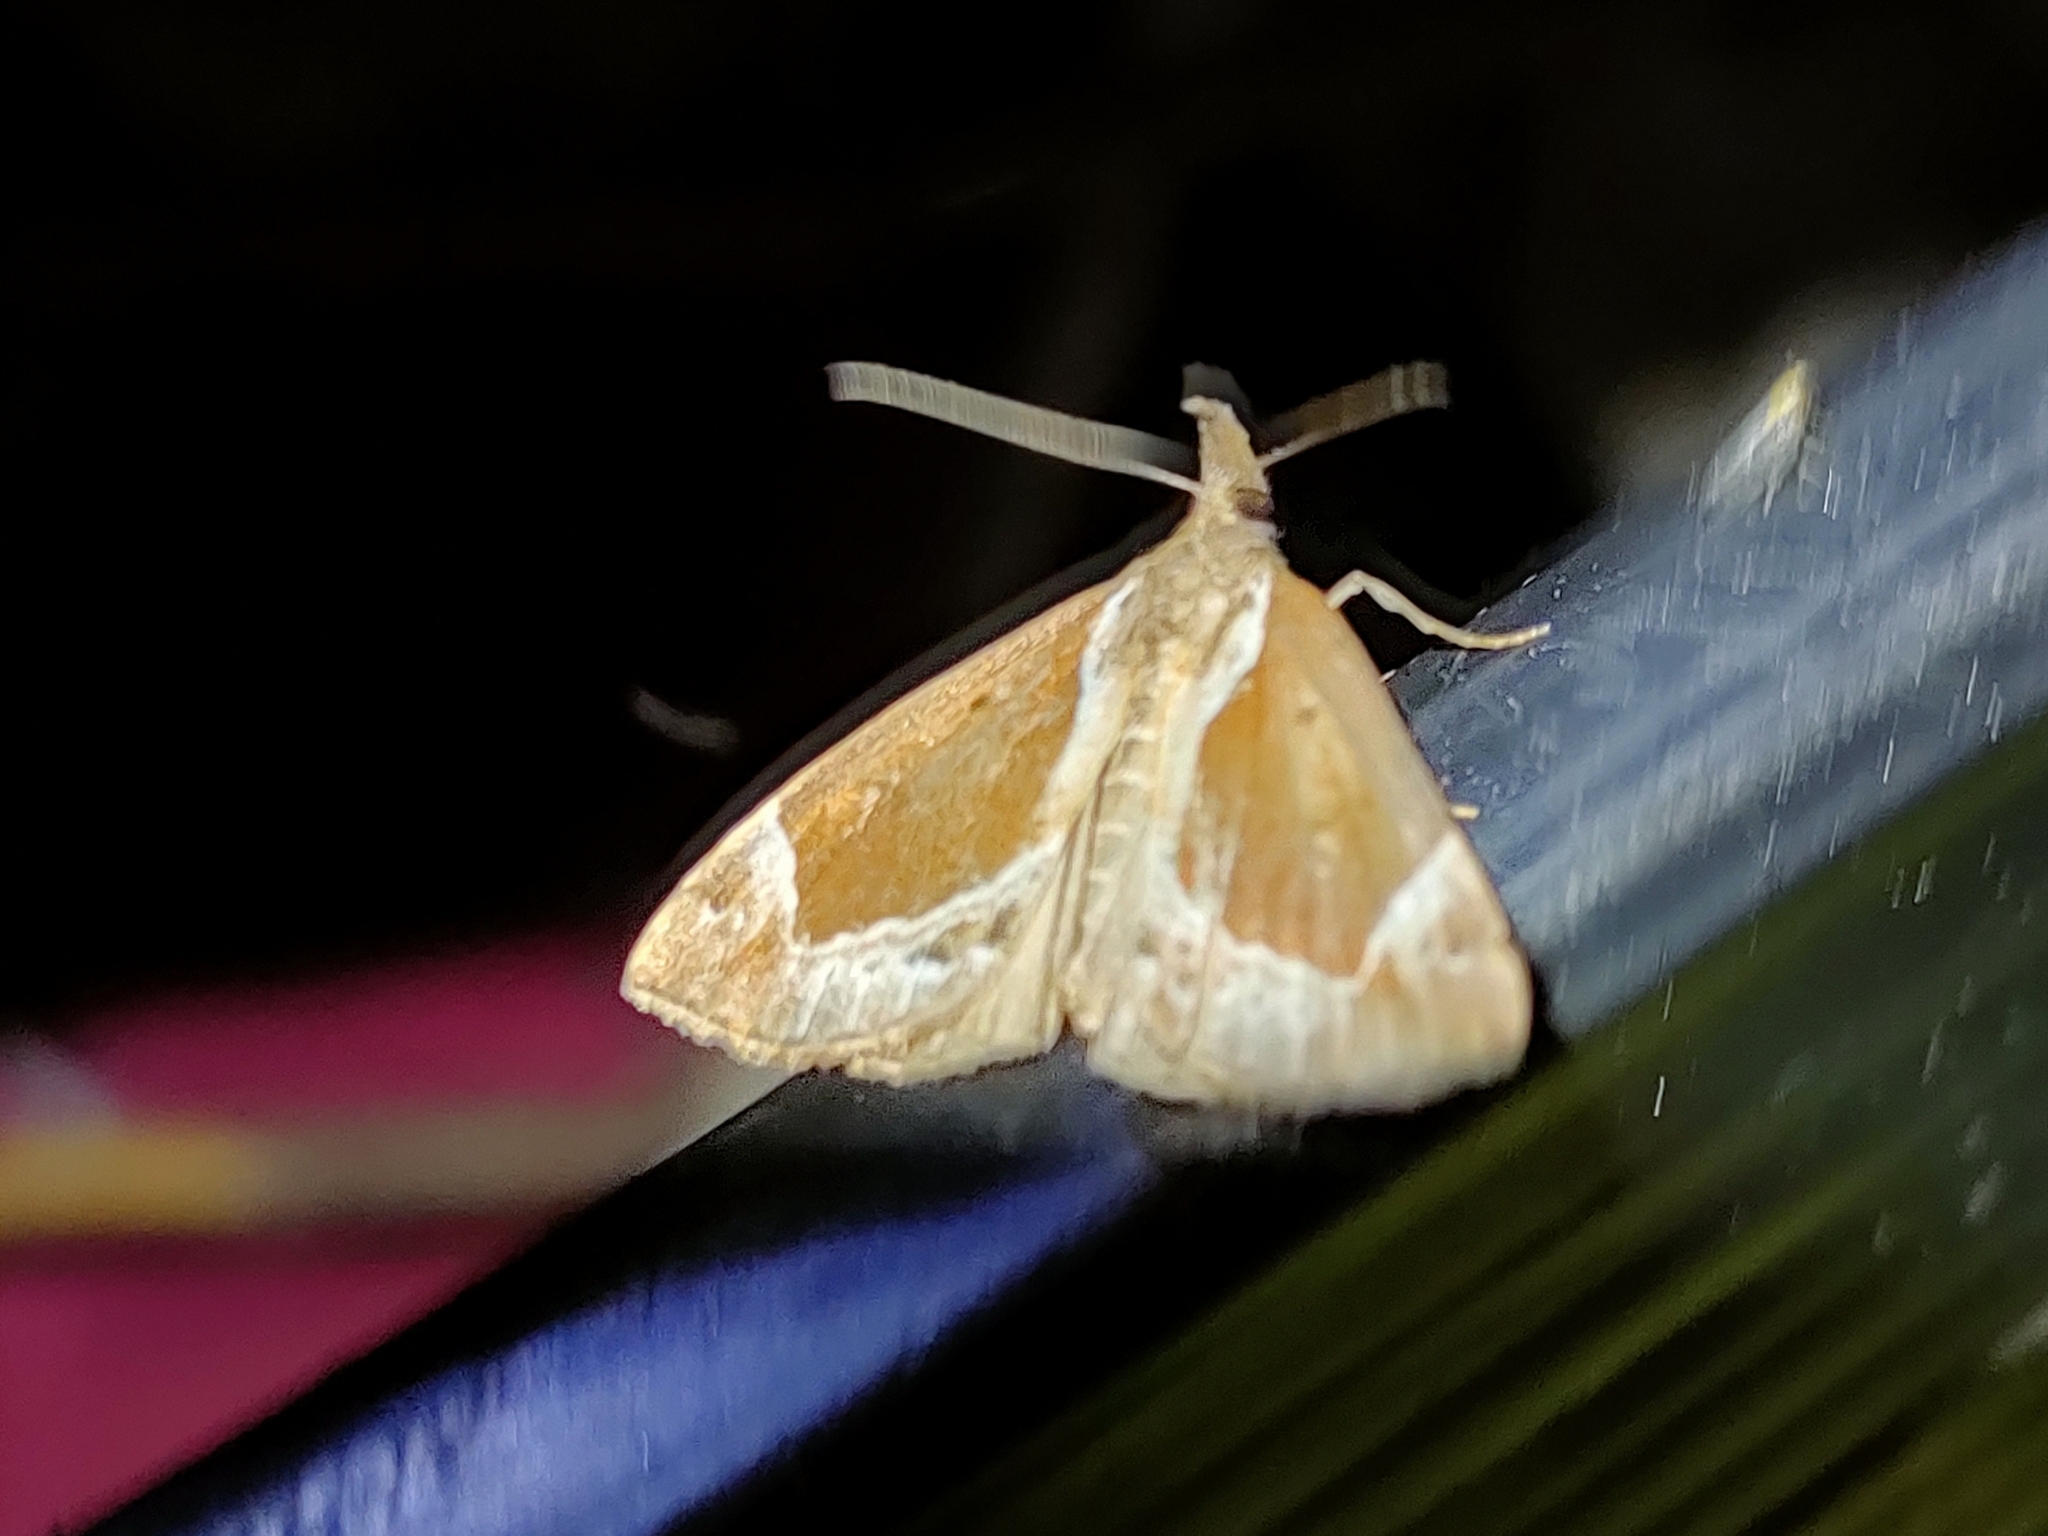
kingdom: Animalia
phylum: Arthropoda
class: Insecta
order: Lepidoptera
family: Erebidae
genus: Hypena
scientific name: Hypena crassalis
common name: Beautiful snout
